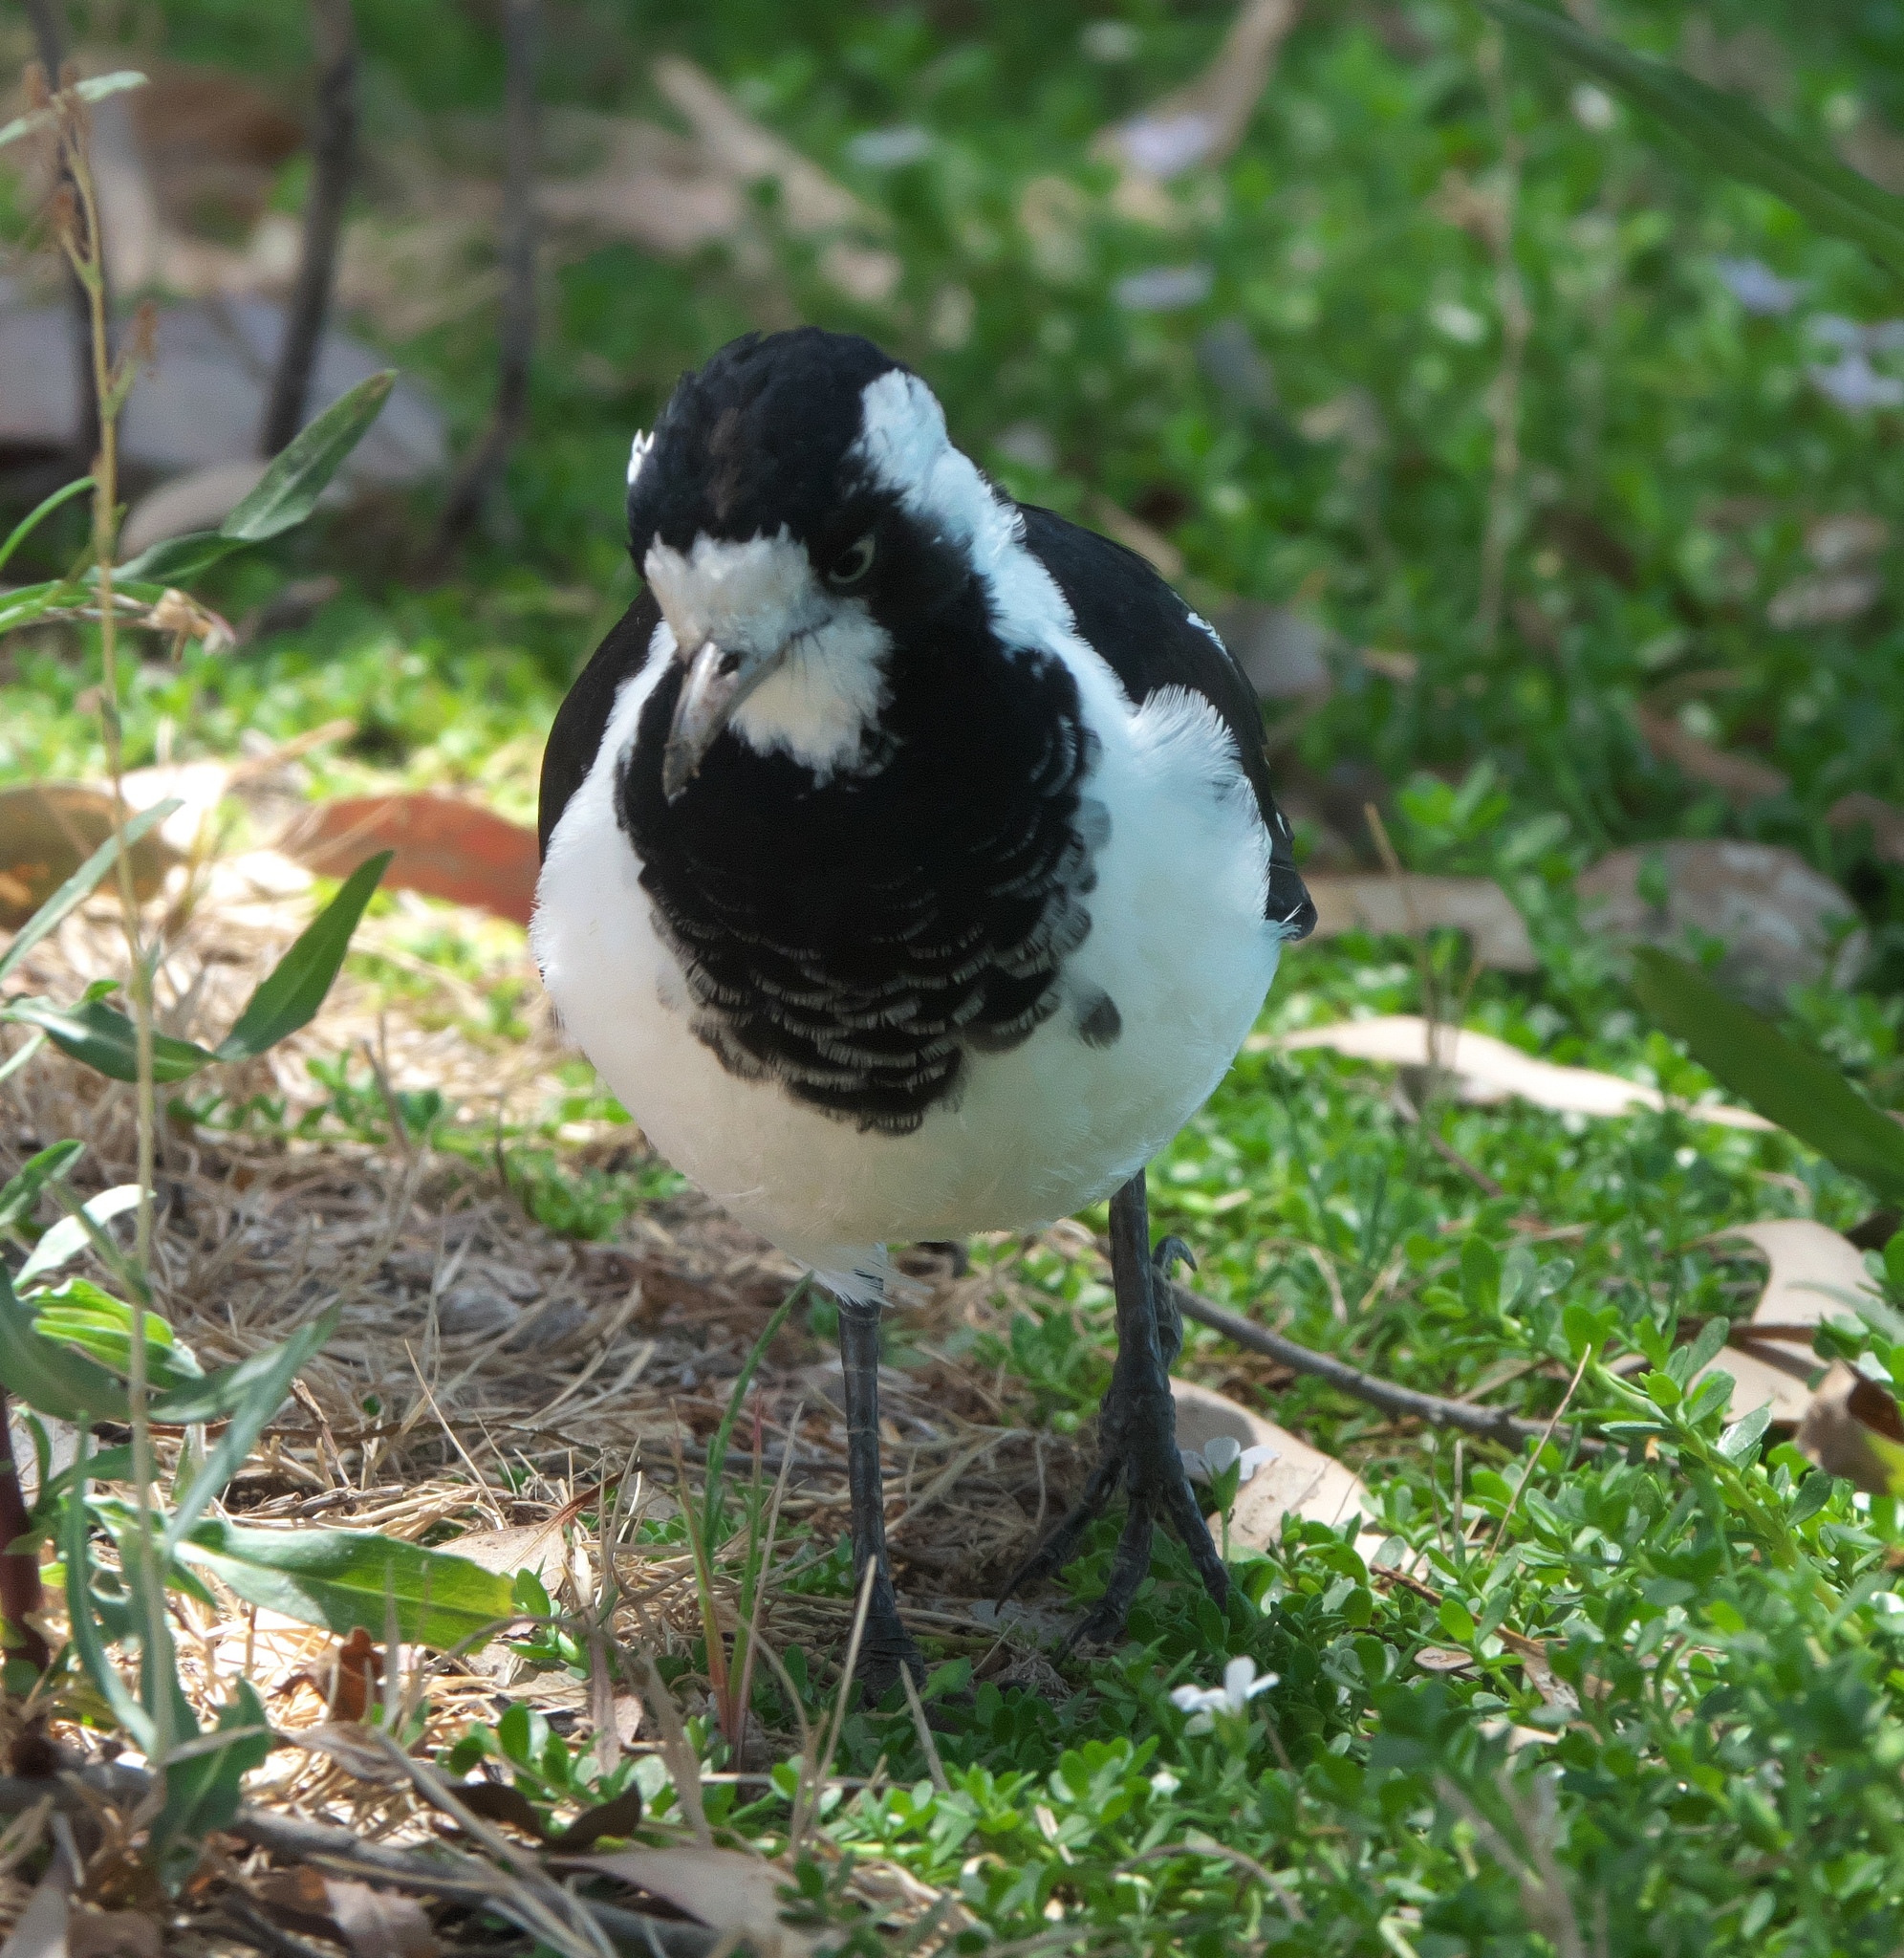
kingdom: Animalia
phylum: Chordata
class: Aves
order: Passeriformes
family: Monarchidae
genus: Grallina
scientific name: Grallina cyanoleuca
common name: Magpie-lark
